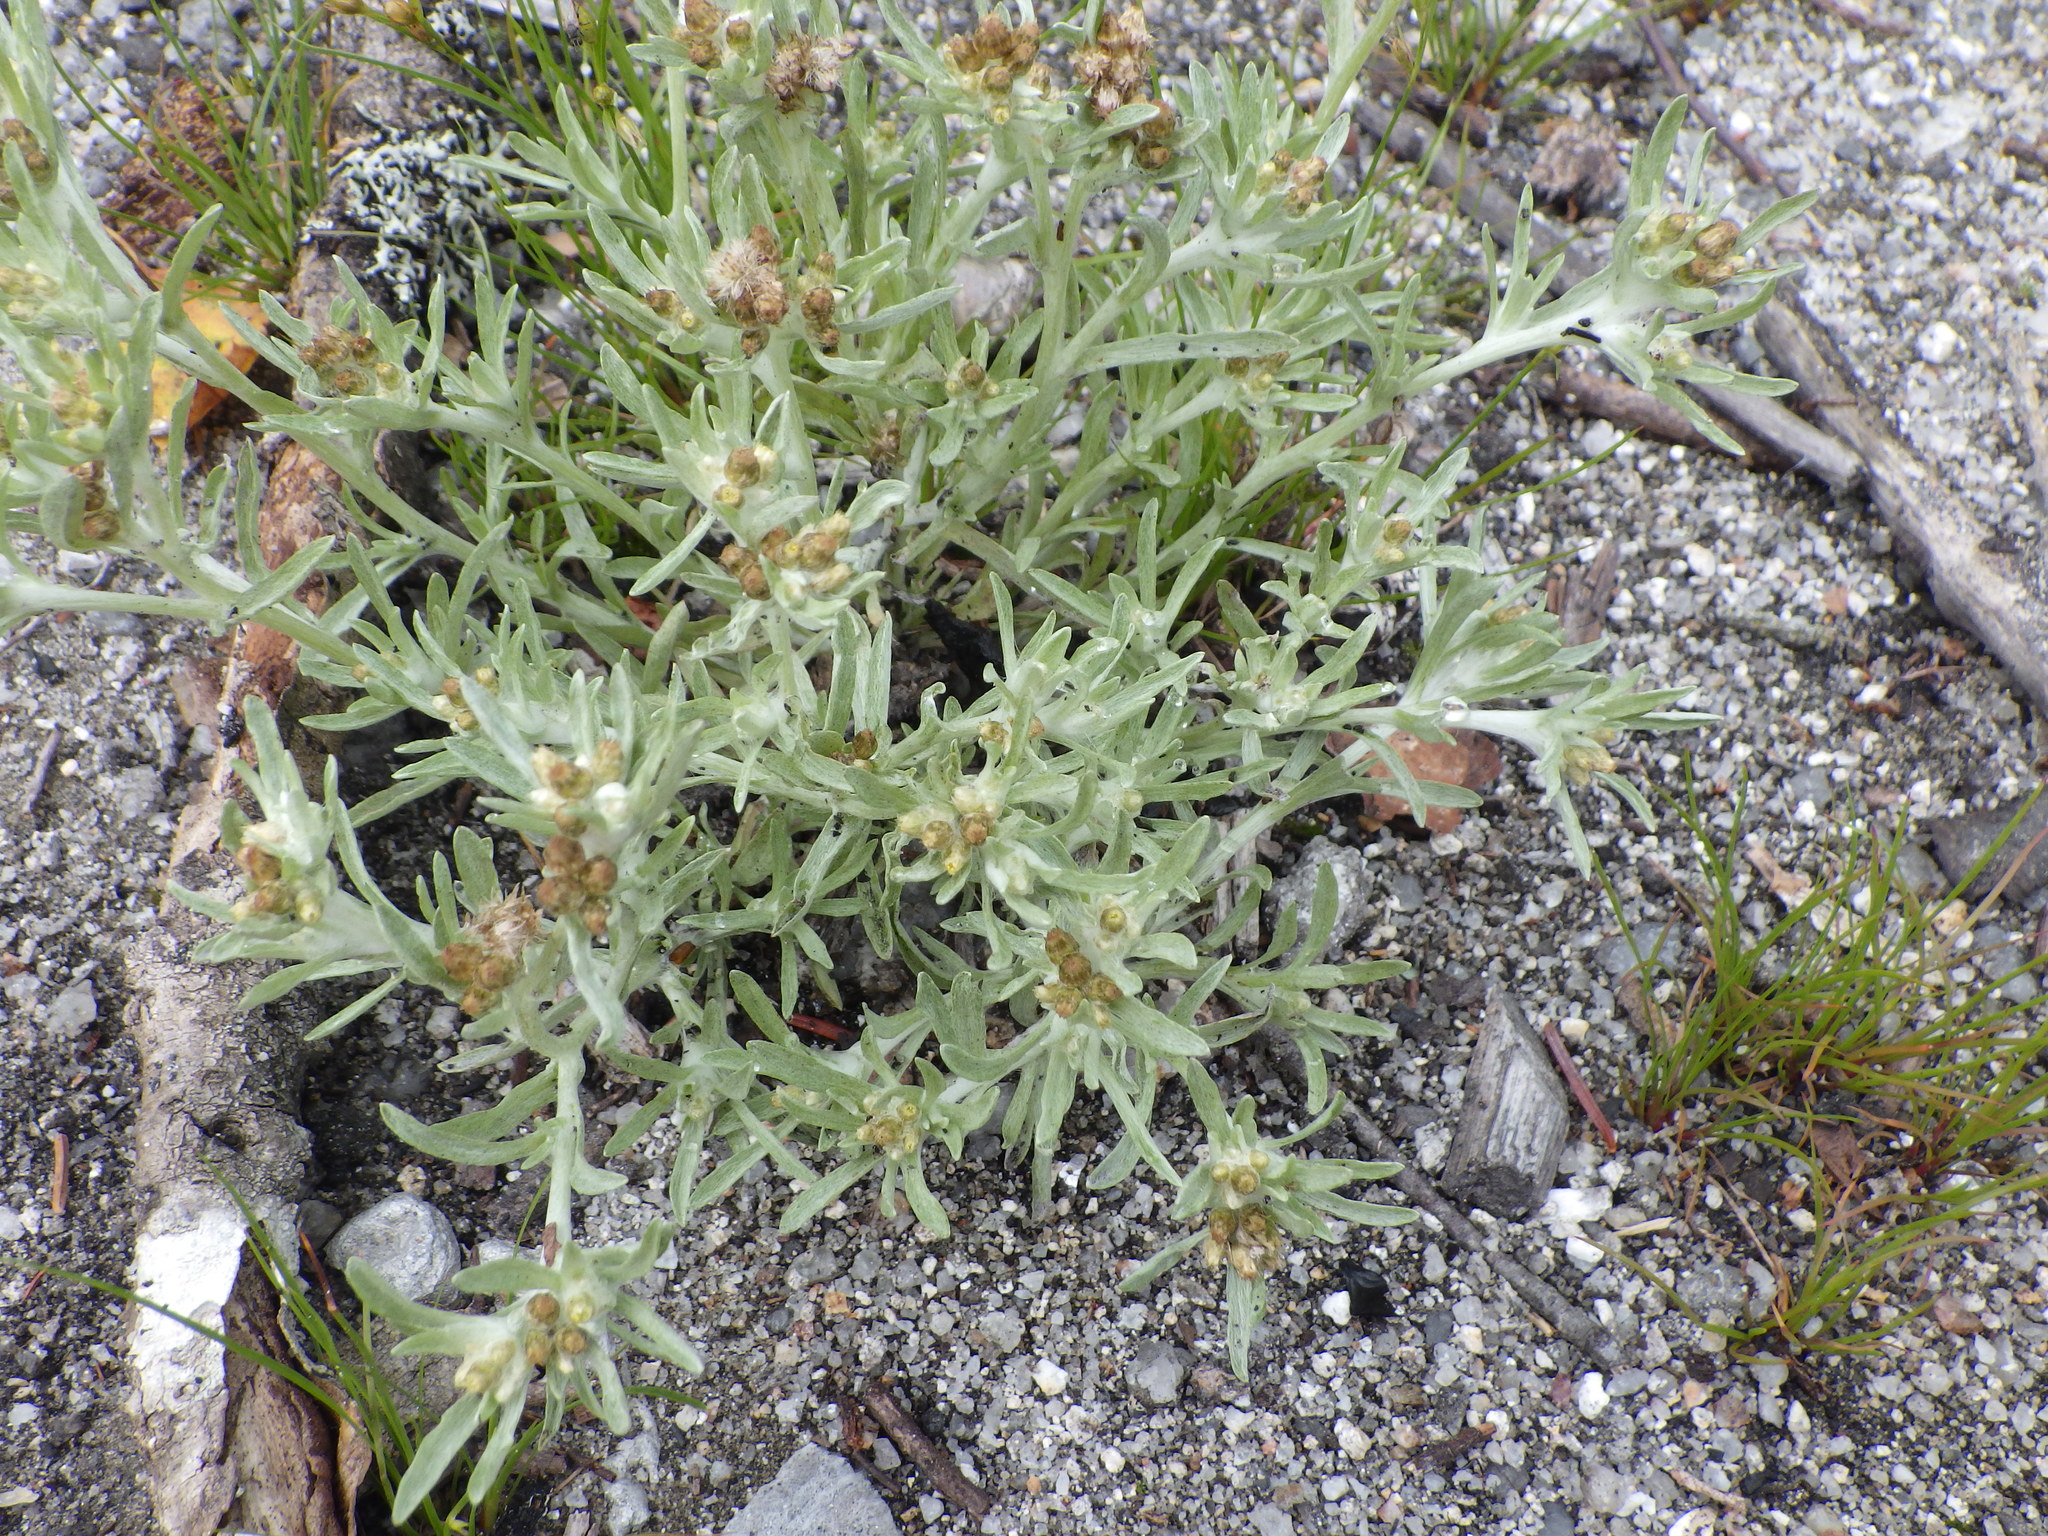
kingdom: Plantae
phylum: Tracheophyta
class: Magnoliopsida
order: Asterales
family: Asteraceae
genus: Gnaphalium
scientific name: Gnaphalium uliginosum
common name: Marsh cudweed
